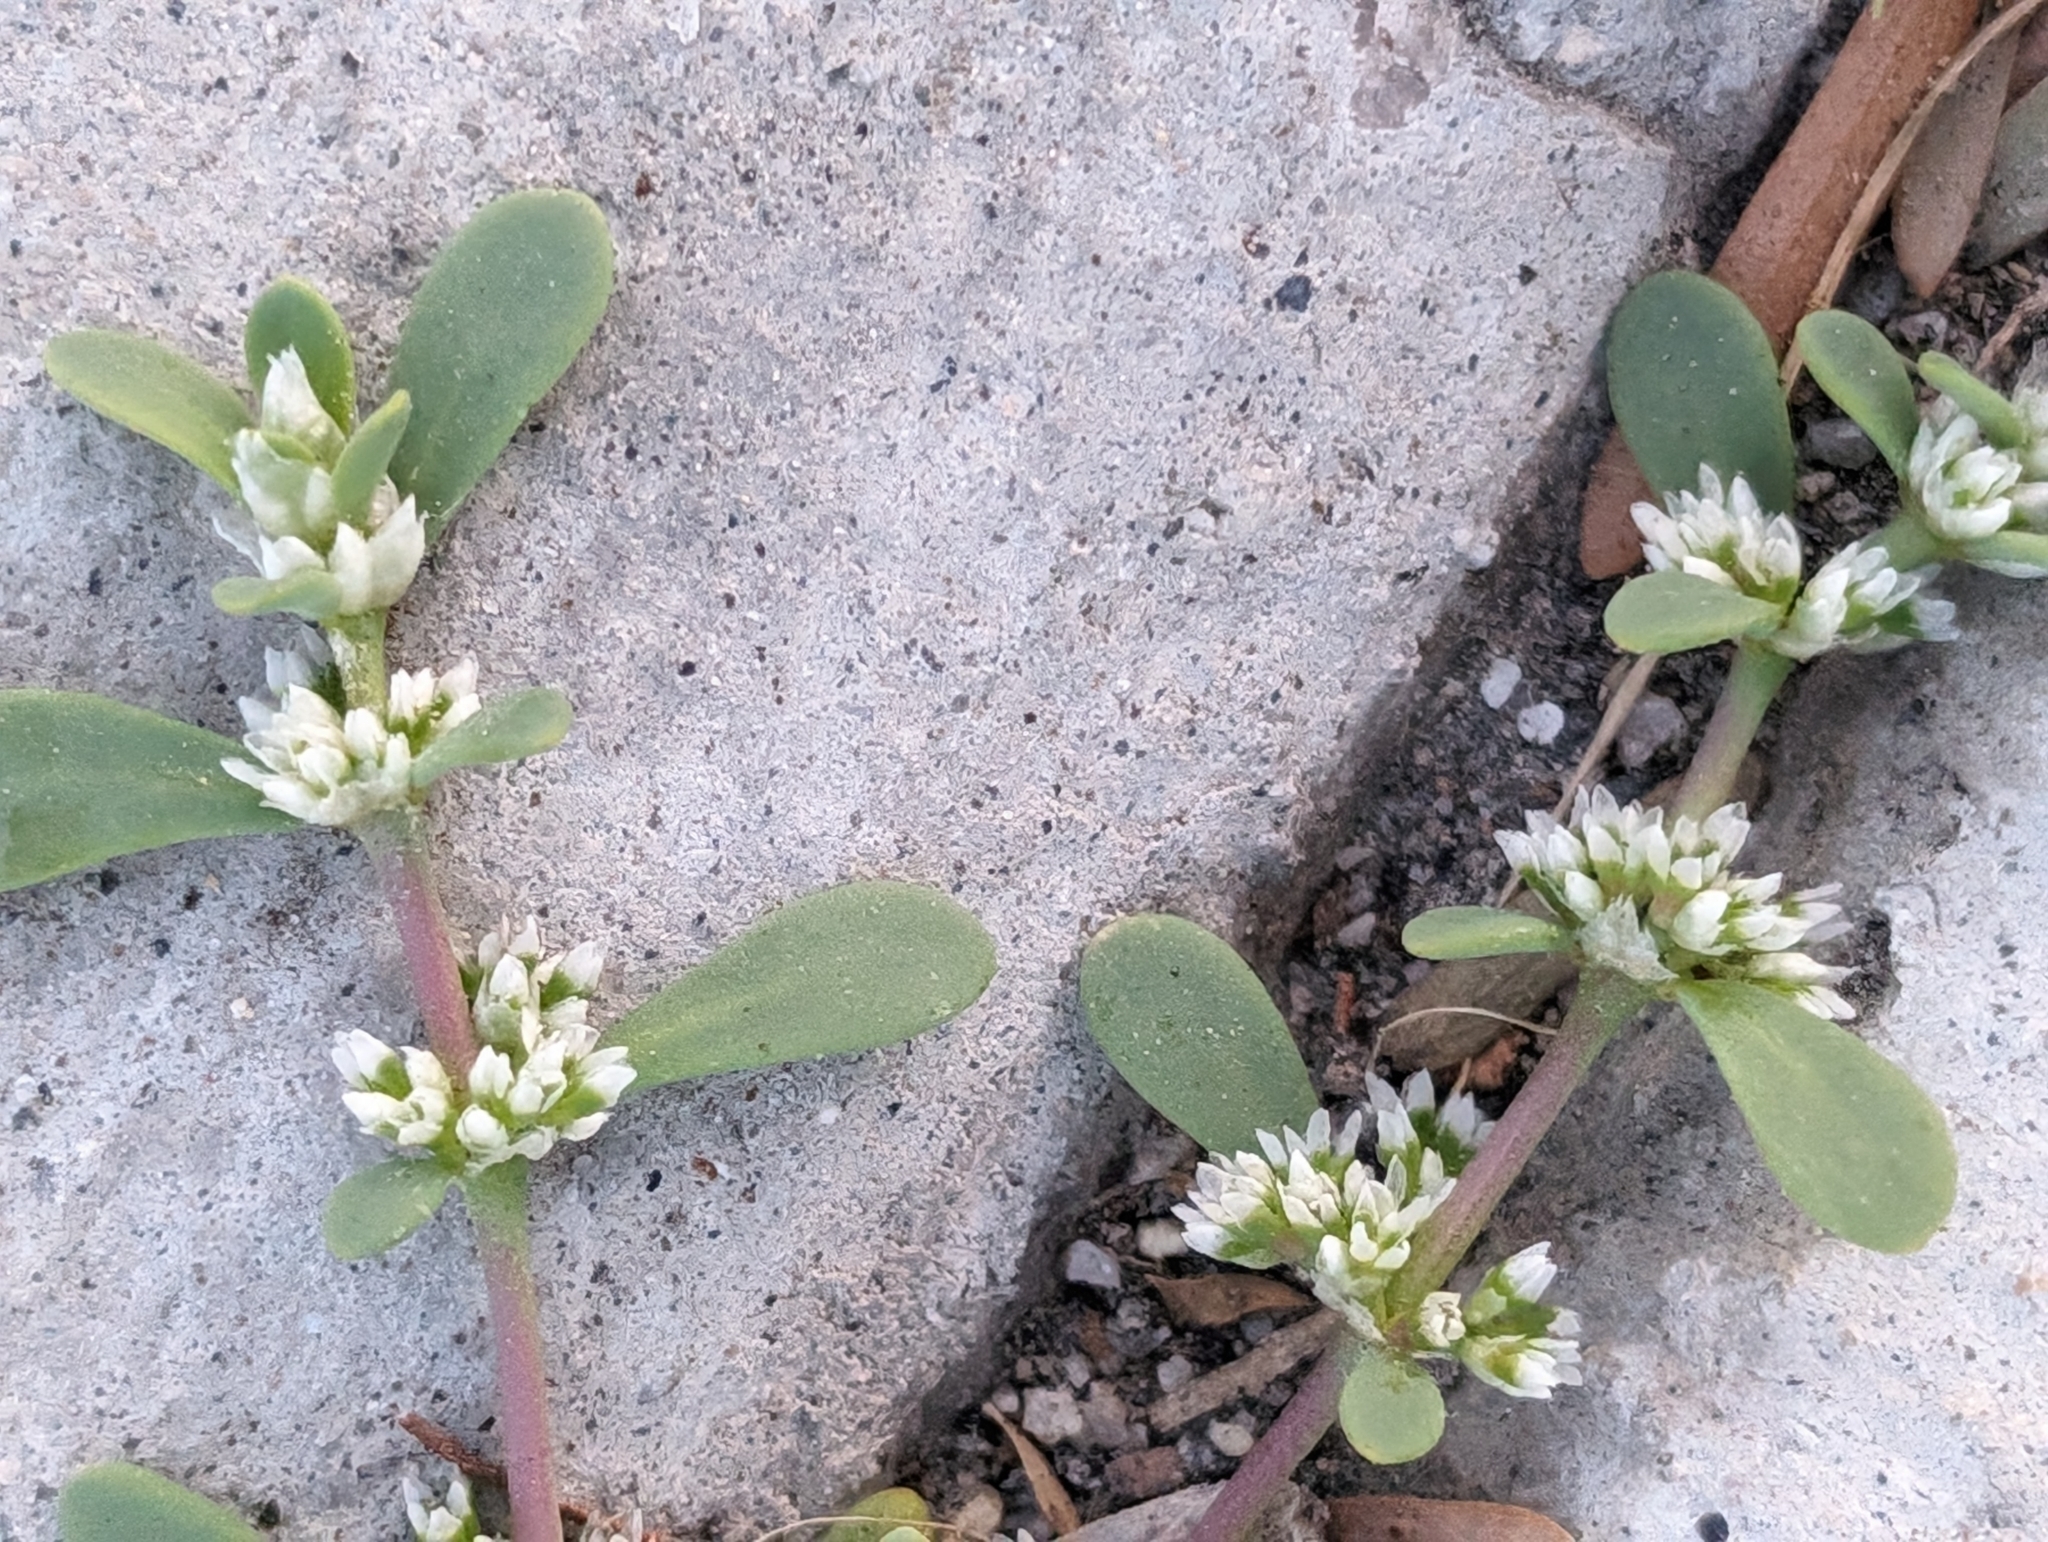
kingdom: Plantae
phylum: Tracheophyta
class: Magnoliopsida
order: Caryophyllales
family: Caryophyllaceae
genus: Achyronychia
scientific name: Achyronychia cooperi
